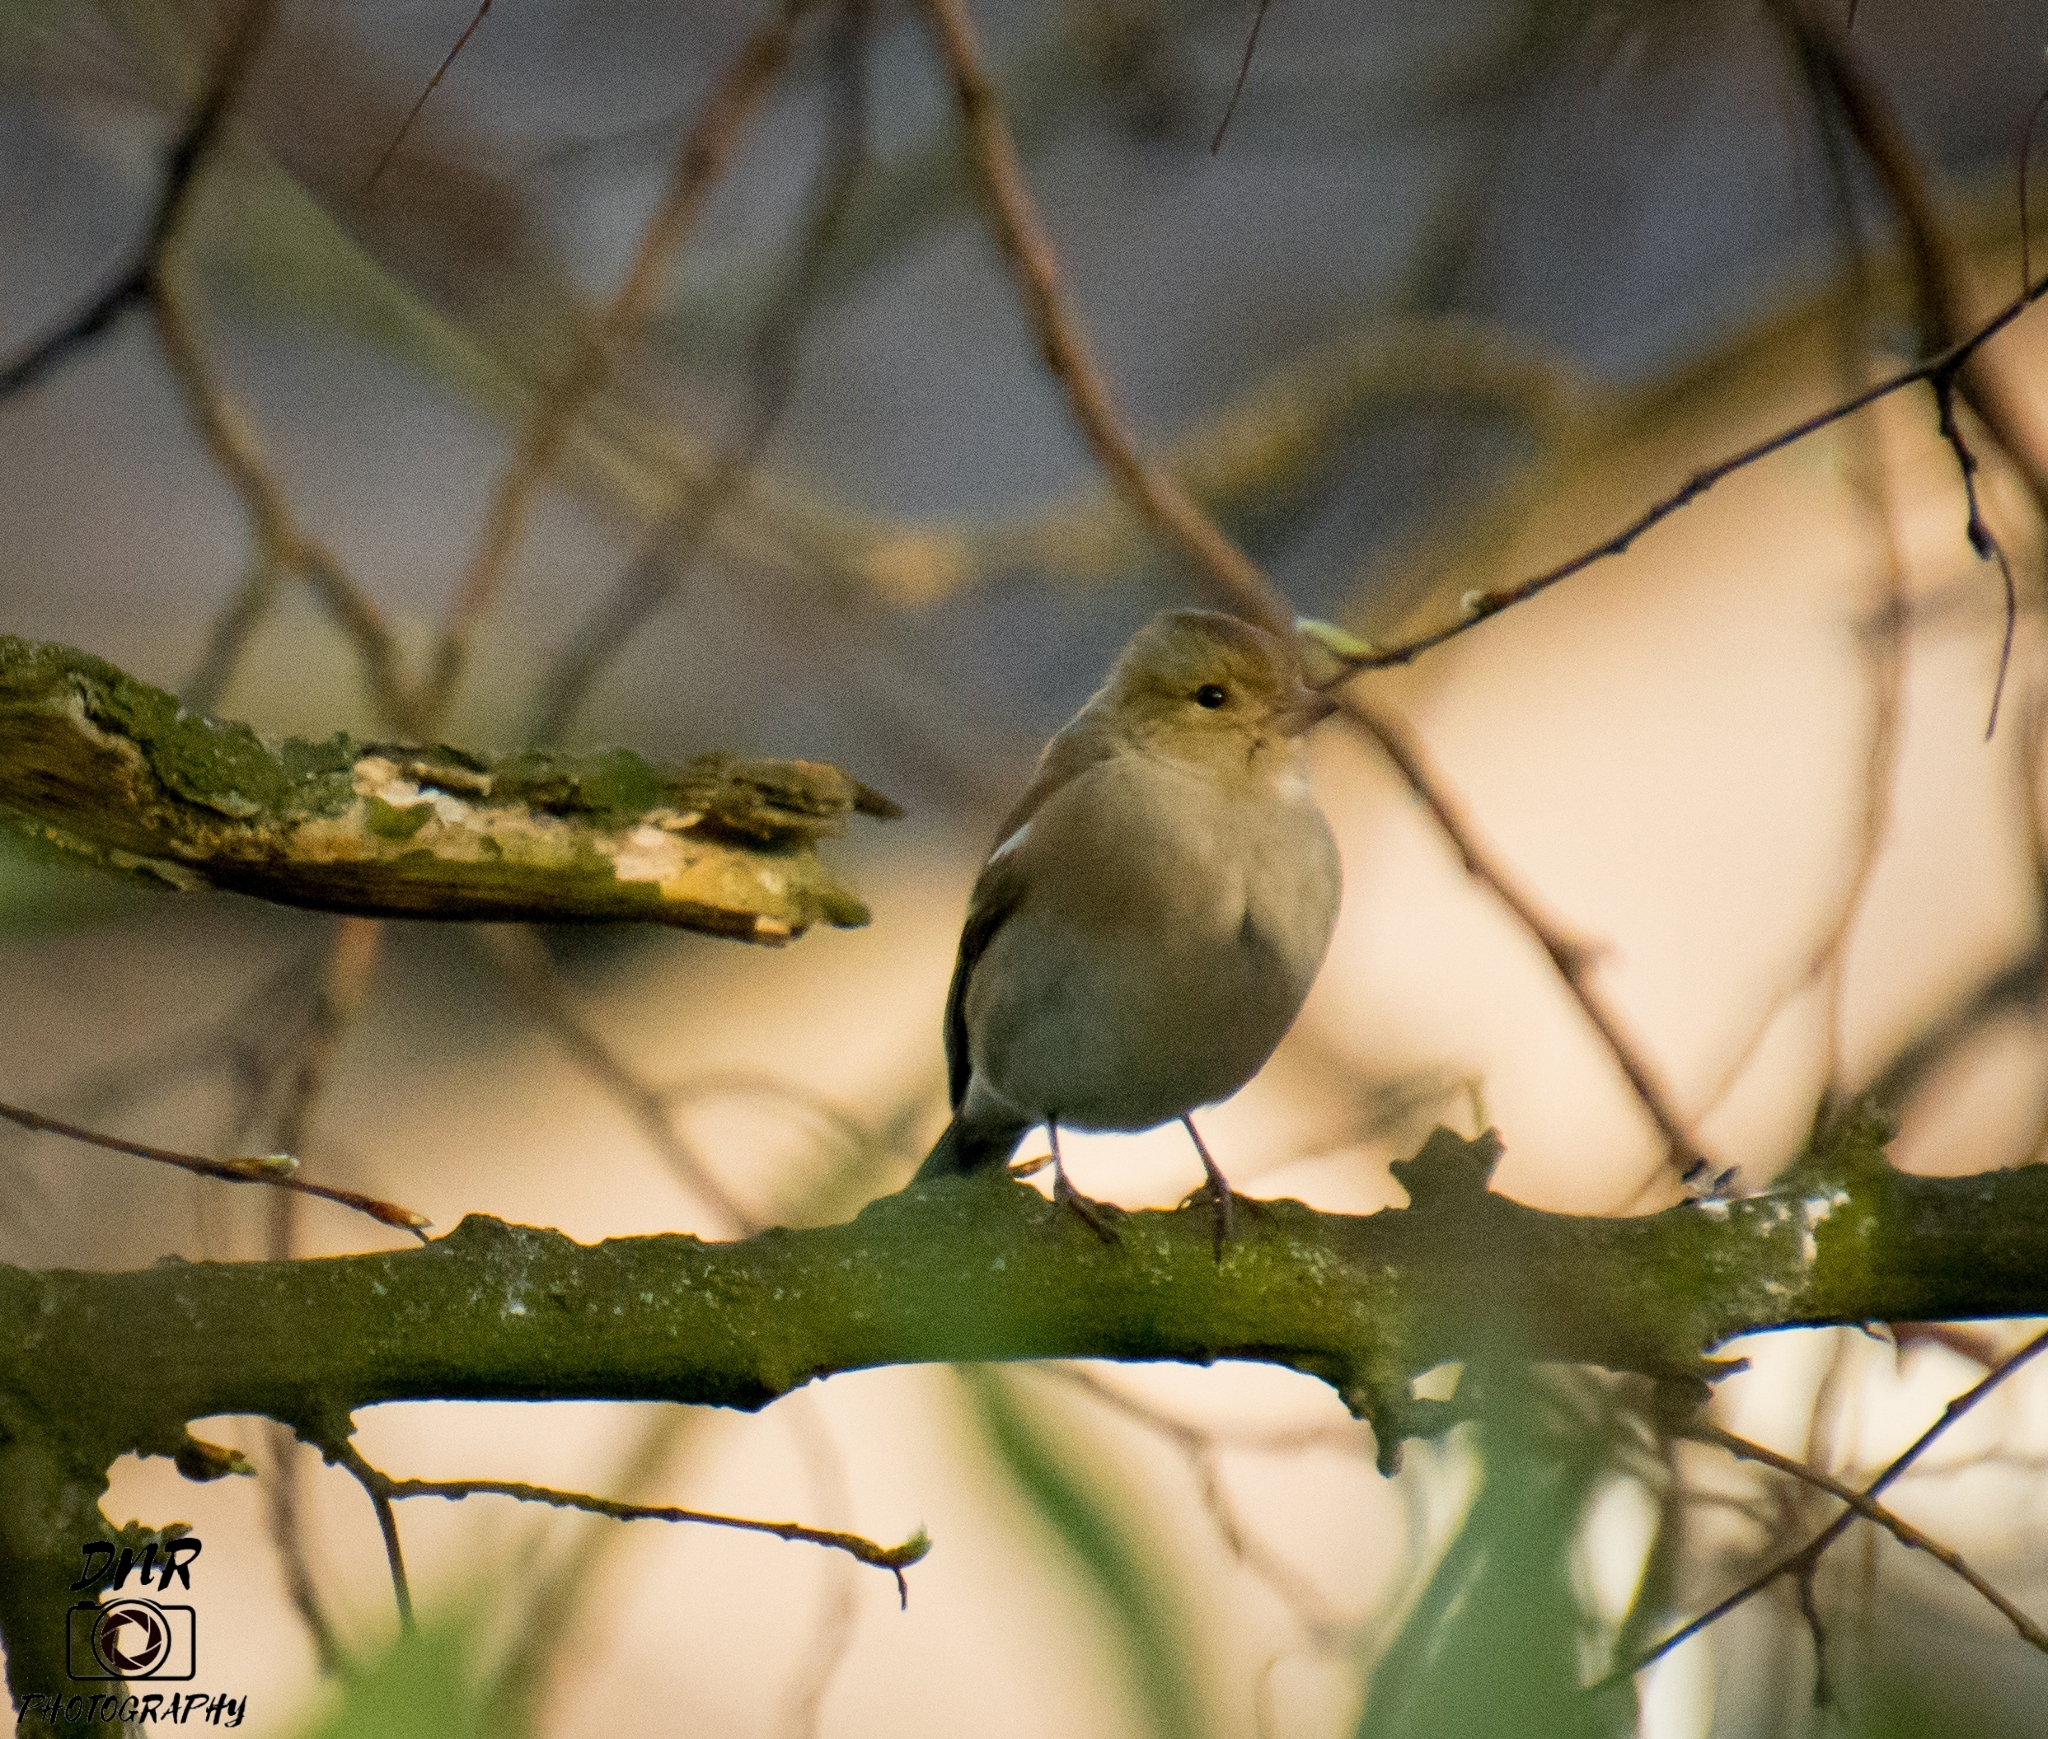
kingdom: Animalia
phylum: Chordata
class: Aves
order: Passeriformes
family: Fringillidae
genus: Fringilla
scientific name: Fringilla coelebs
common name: Common chaffinch
